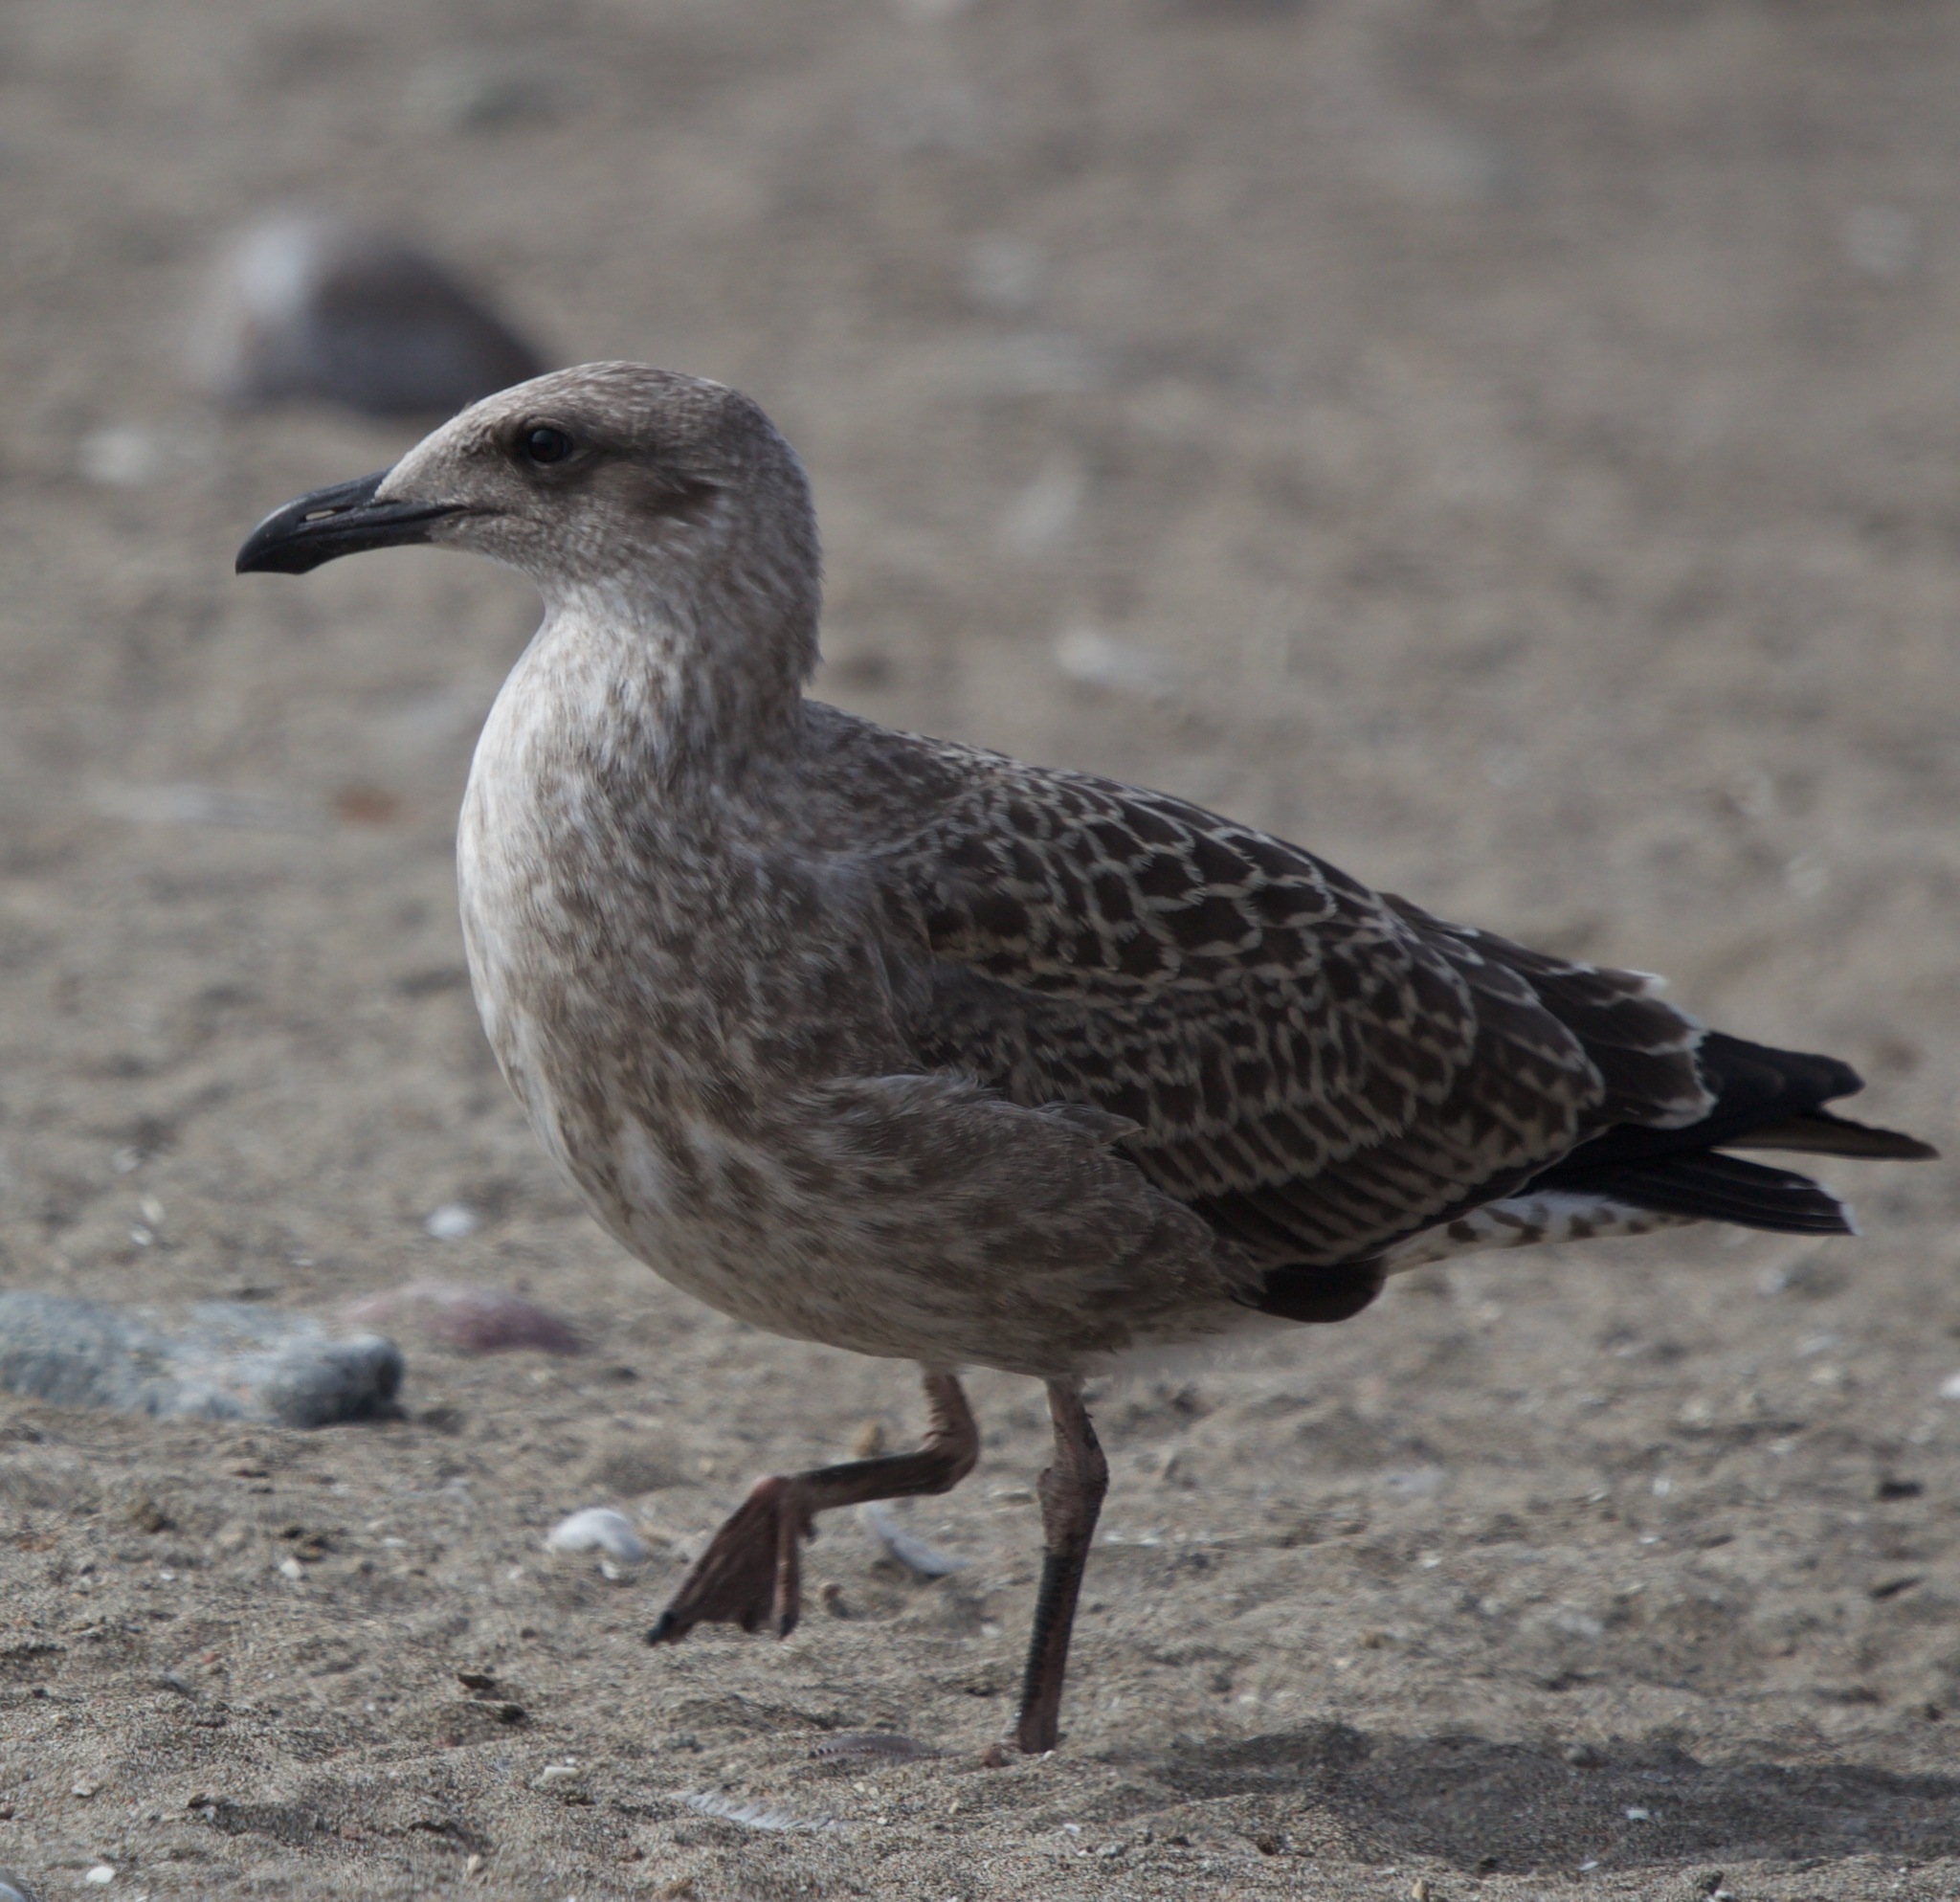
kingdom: Animalia
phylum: Chordata
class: Aves
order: Charadriiformes
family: Laridae
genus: Larus
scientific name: Larus dominicanus
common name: Kelp gull
